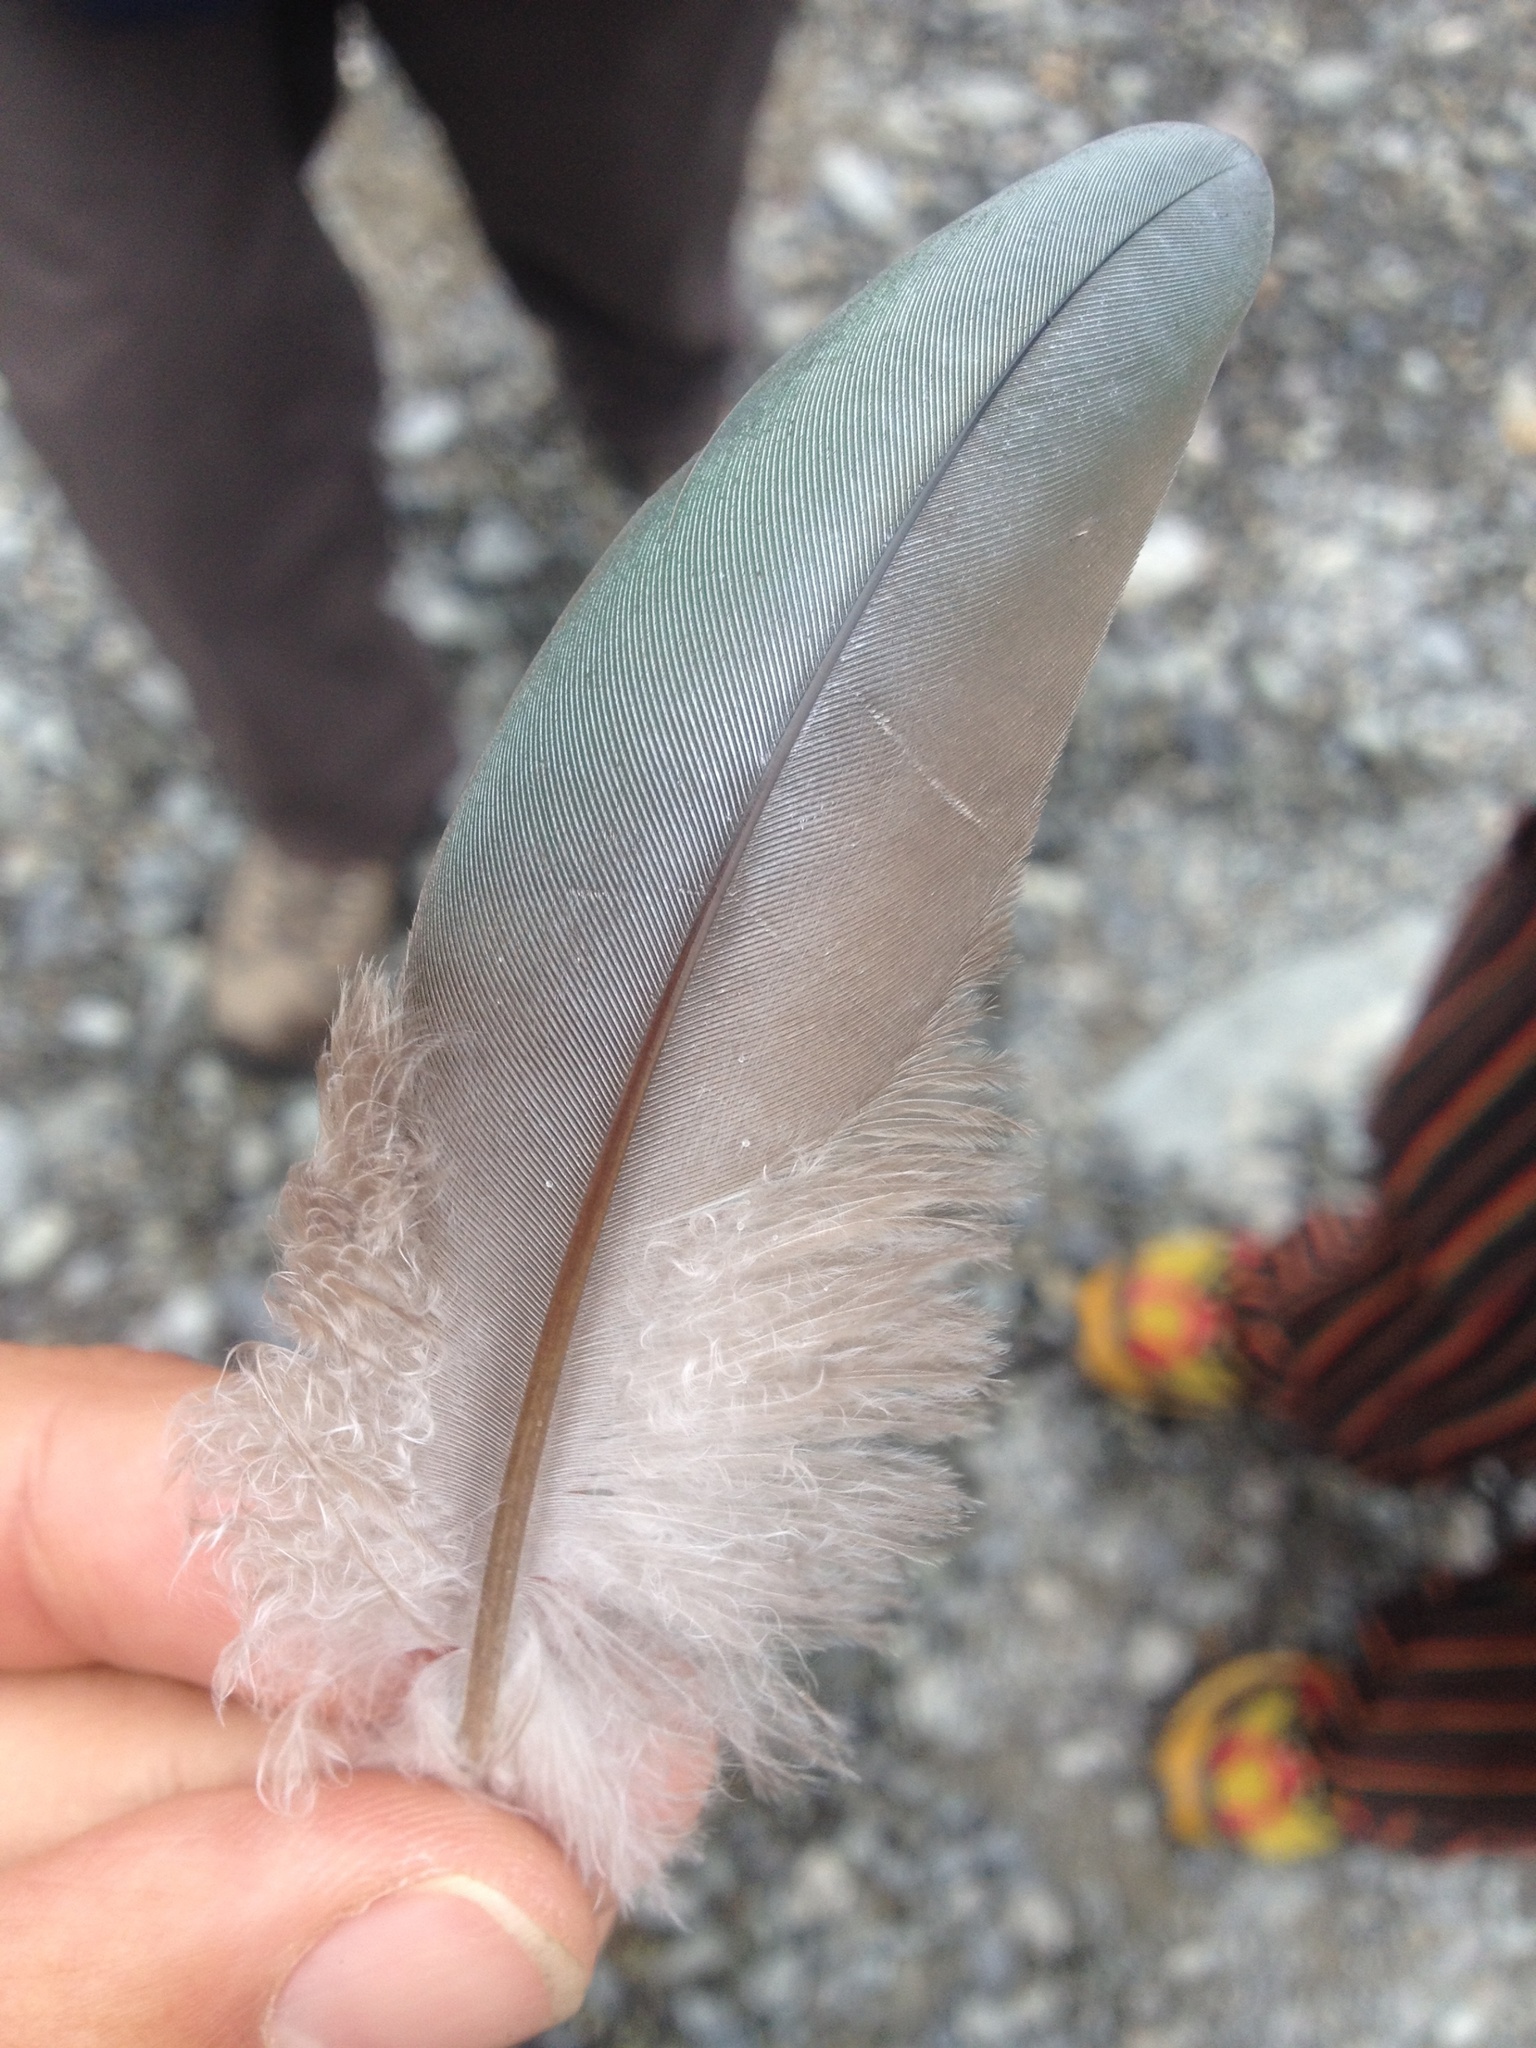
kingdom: Animalia
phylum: Chordata
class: Aves
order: Columbiformes
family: Columbidae
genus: Hemiphaga
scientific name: Hemiphaga novaeseelandiae
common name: New zealand pigeon
